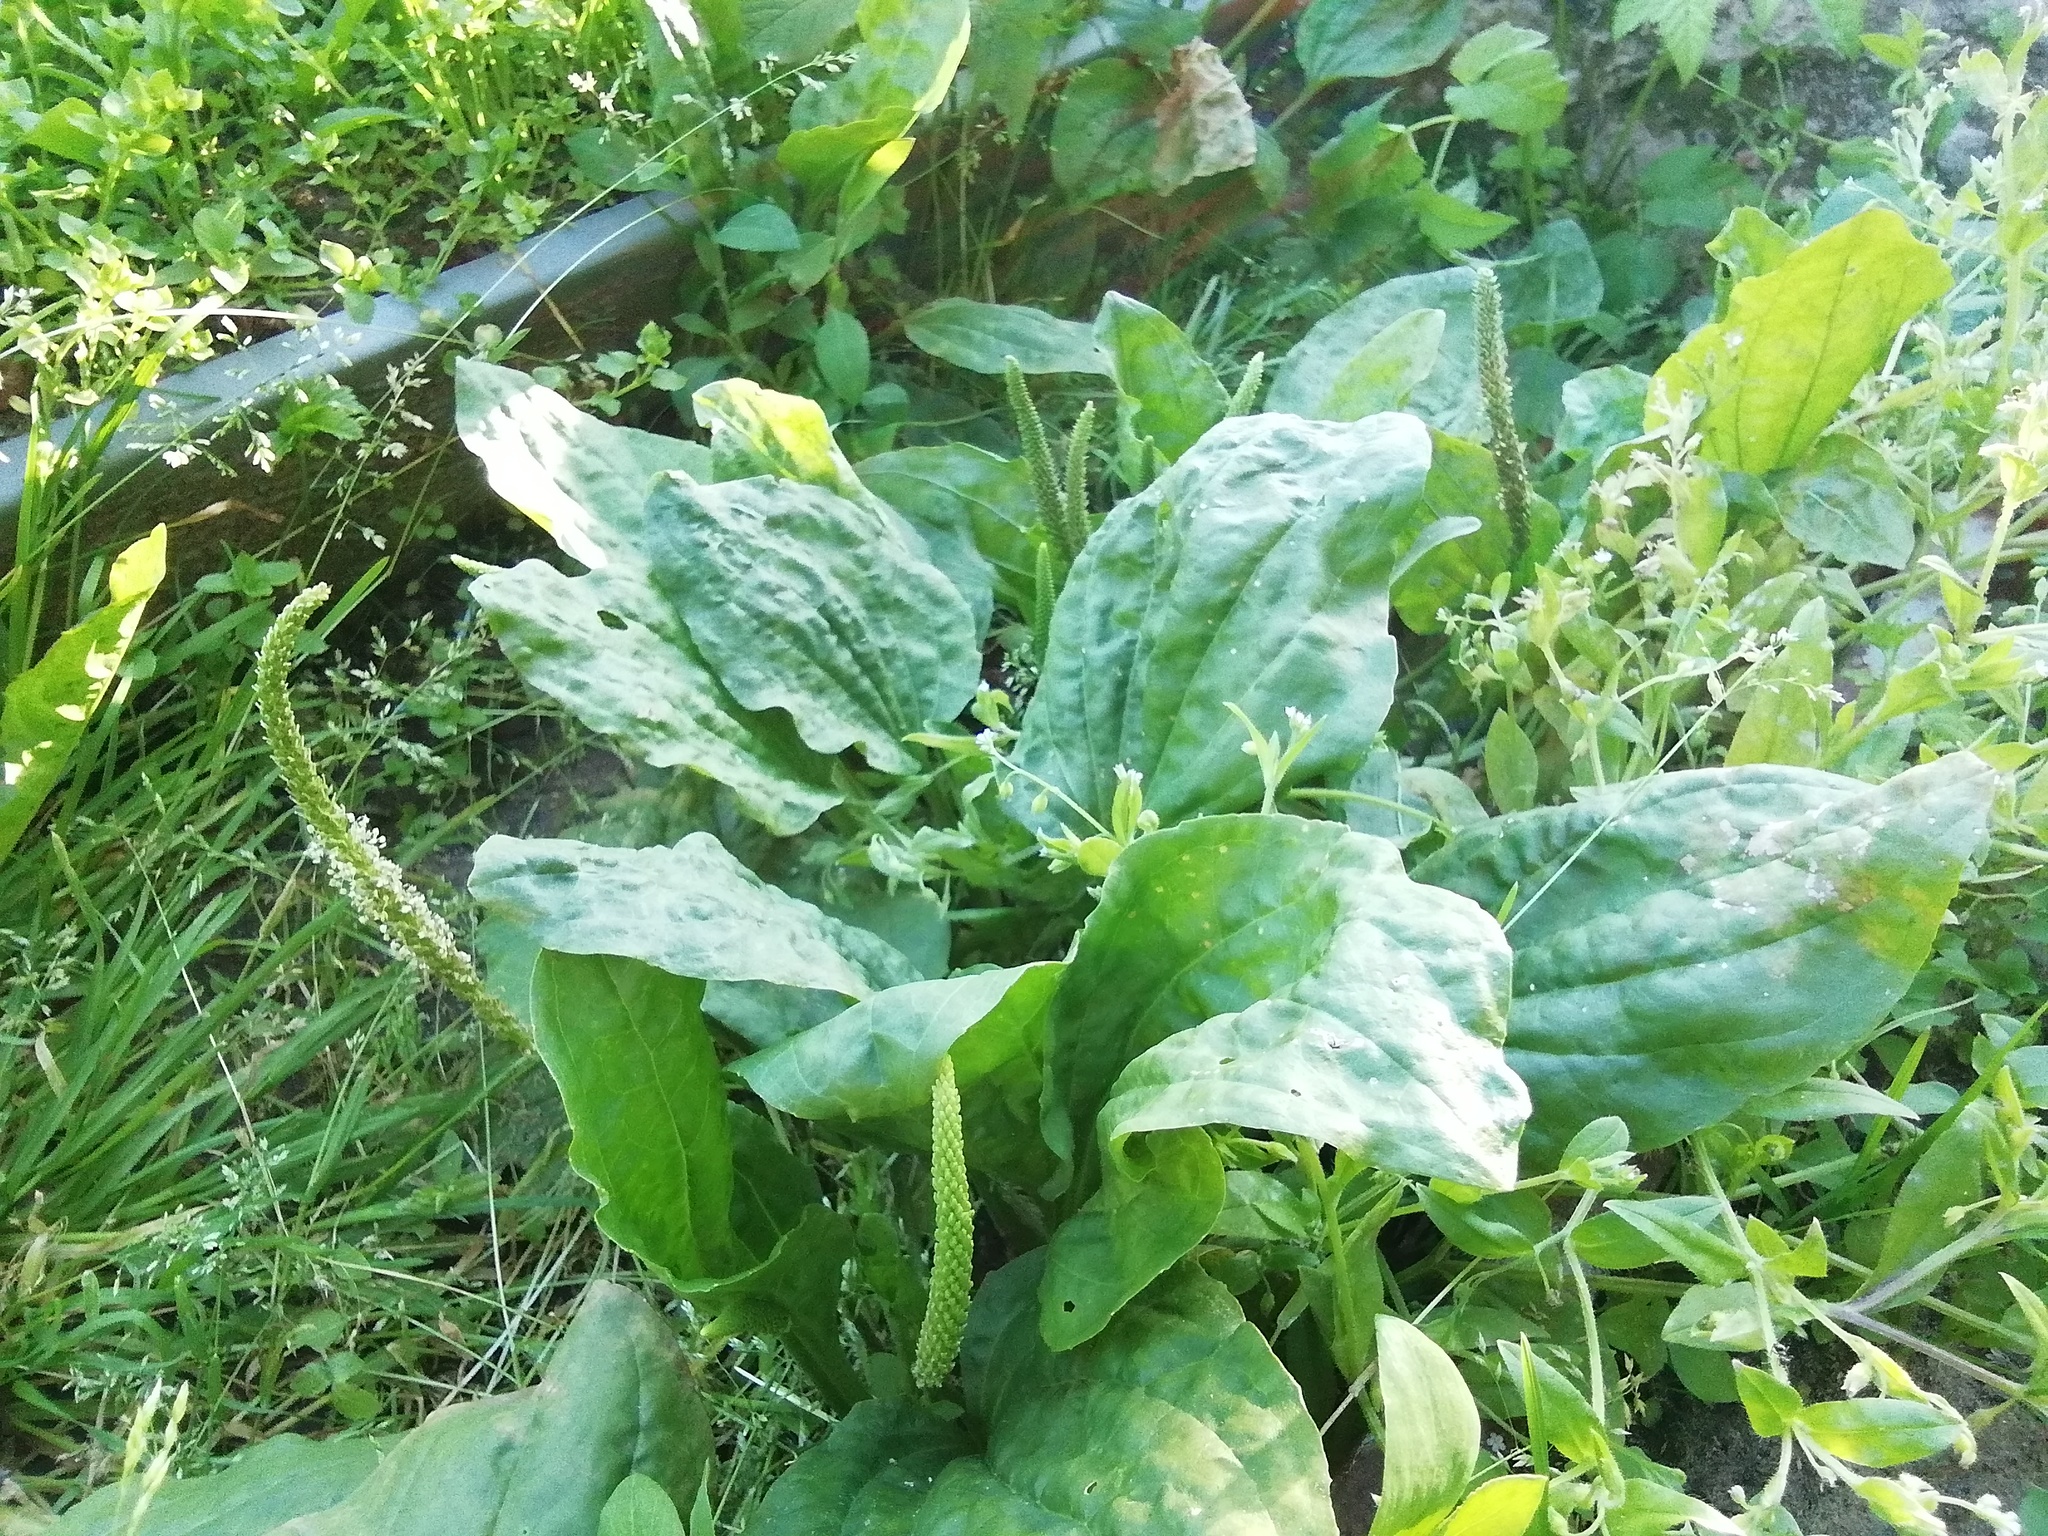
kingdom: Plantae
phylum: Tracheophyta
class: Magnoliopsida
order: Lamiales
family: Plantaginaceae
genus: Plantago
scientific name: Plantago major
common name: Common plantain
